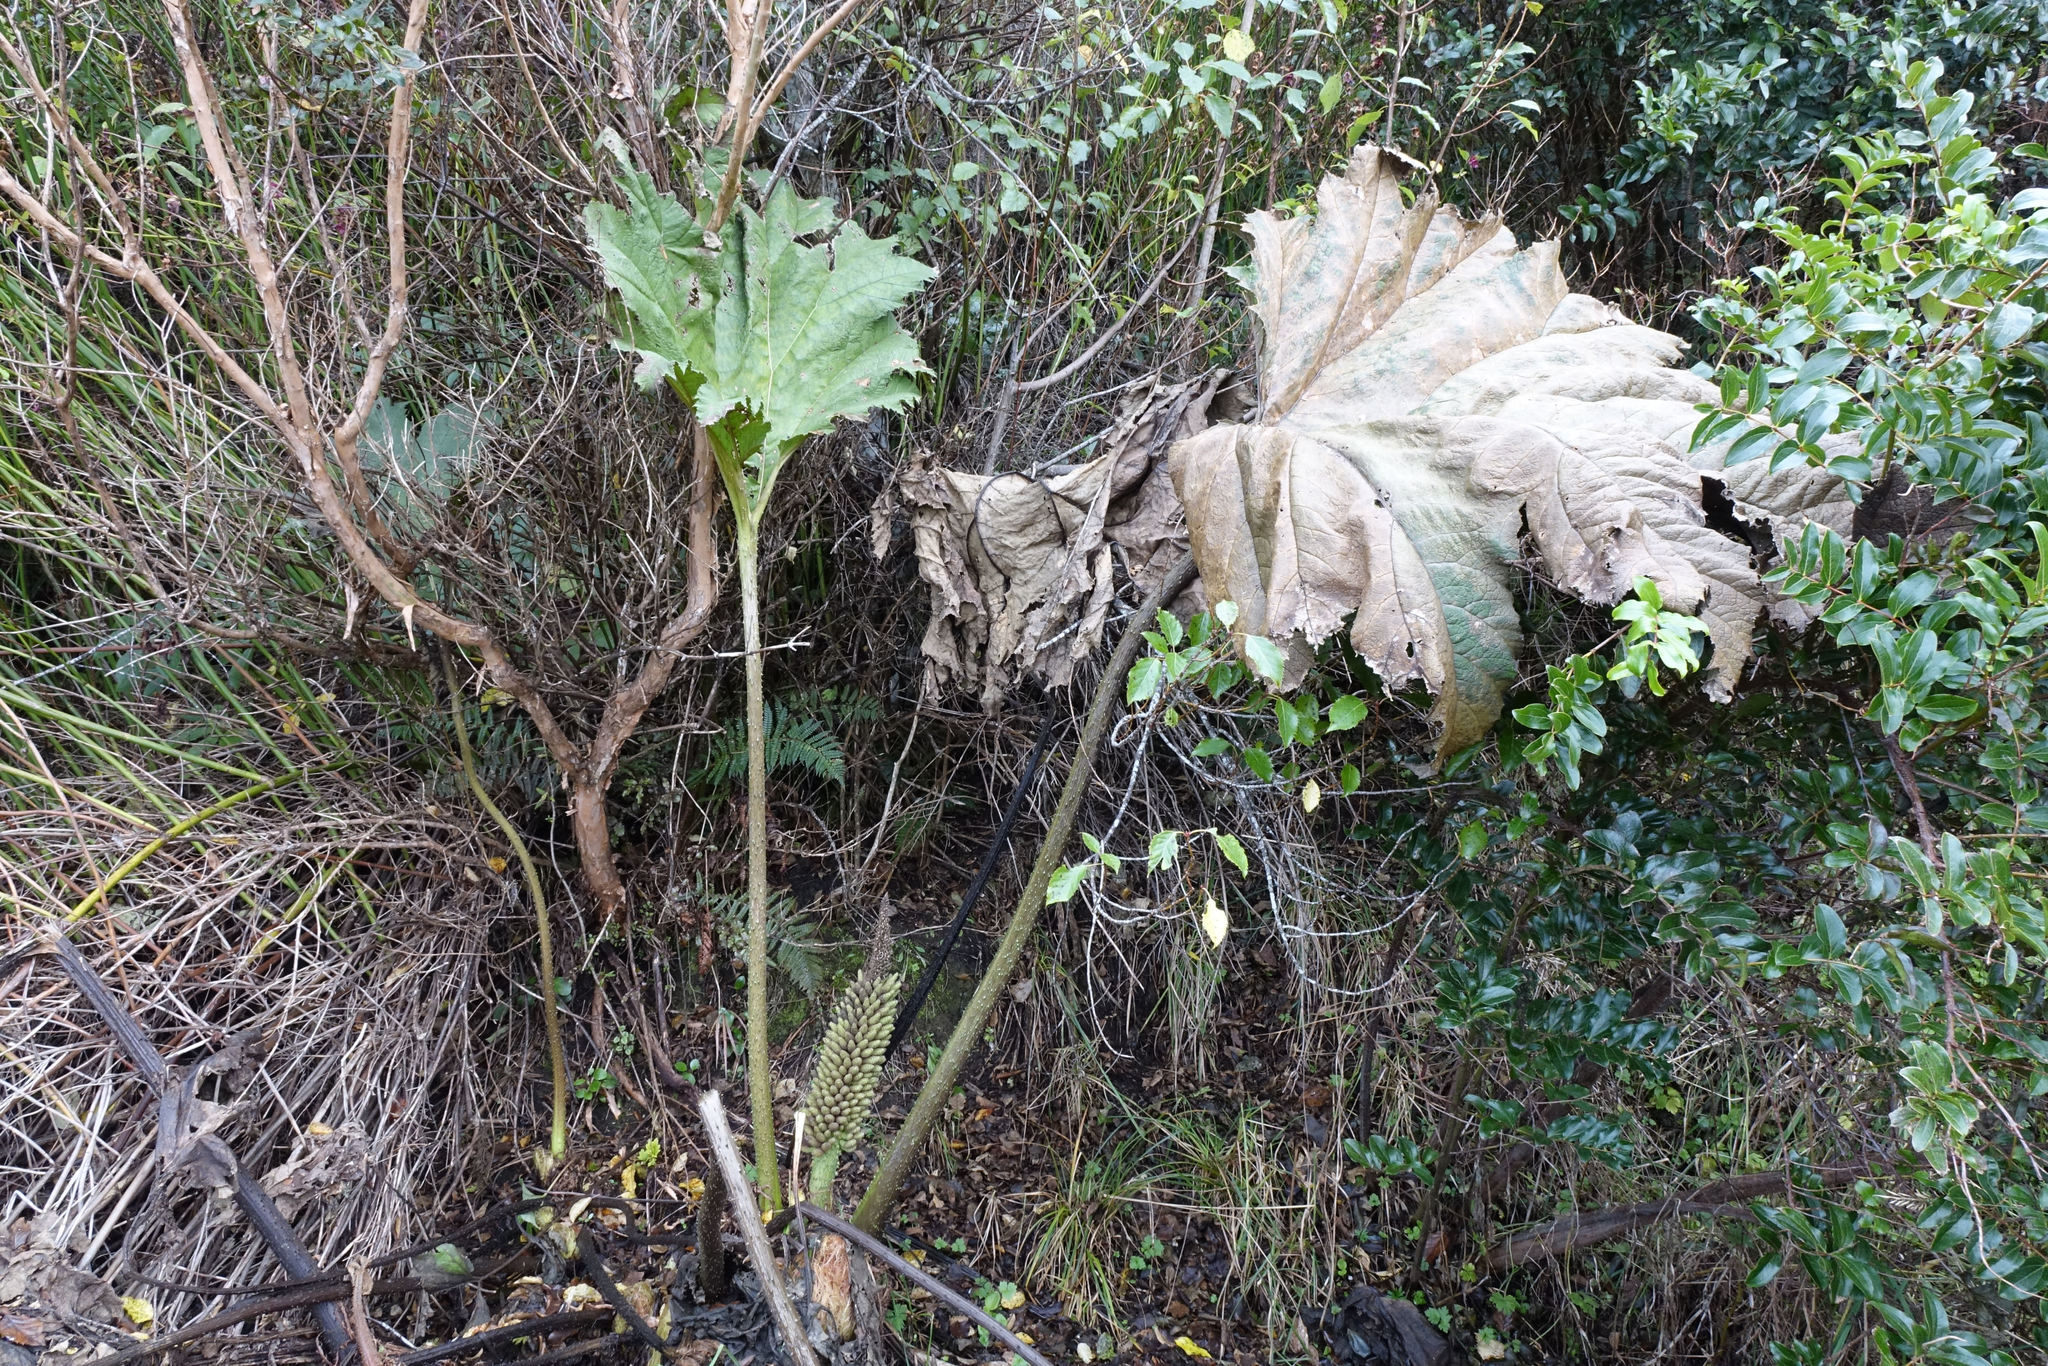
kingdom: Plantae
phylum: Tracheophyta
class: Magnoliopsida
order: Gunnerales
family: Gunneraceae
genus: Gunnera
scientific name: Gunnera tinctoria
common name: Giant-rhubarb
